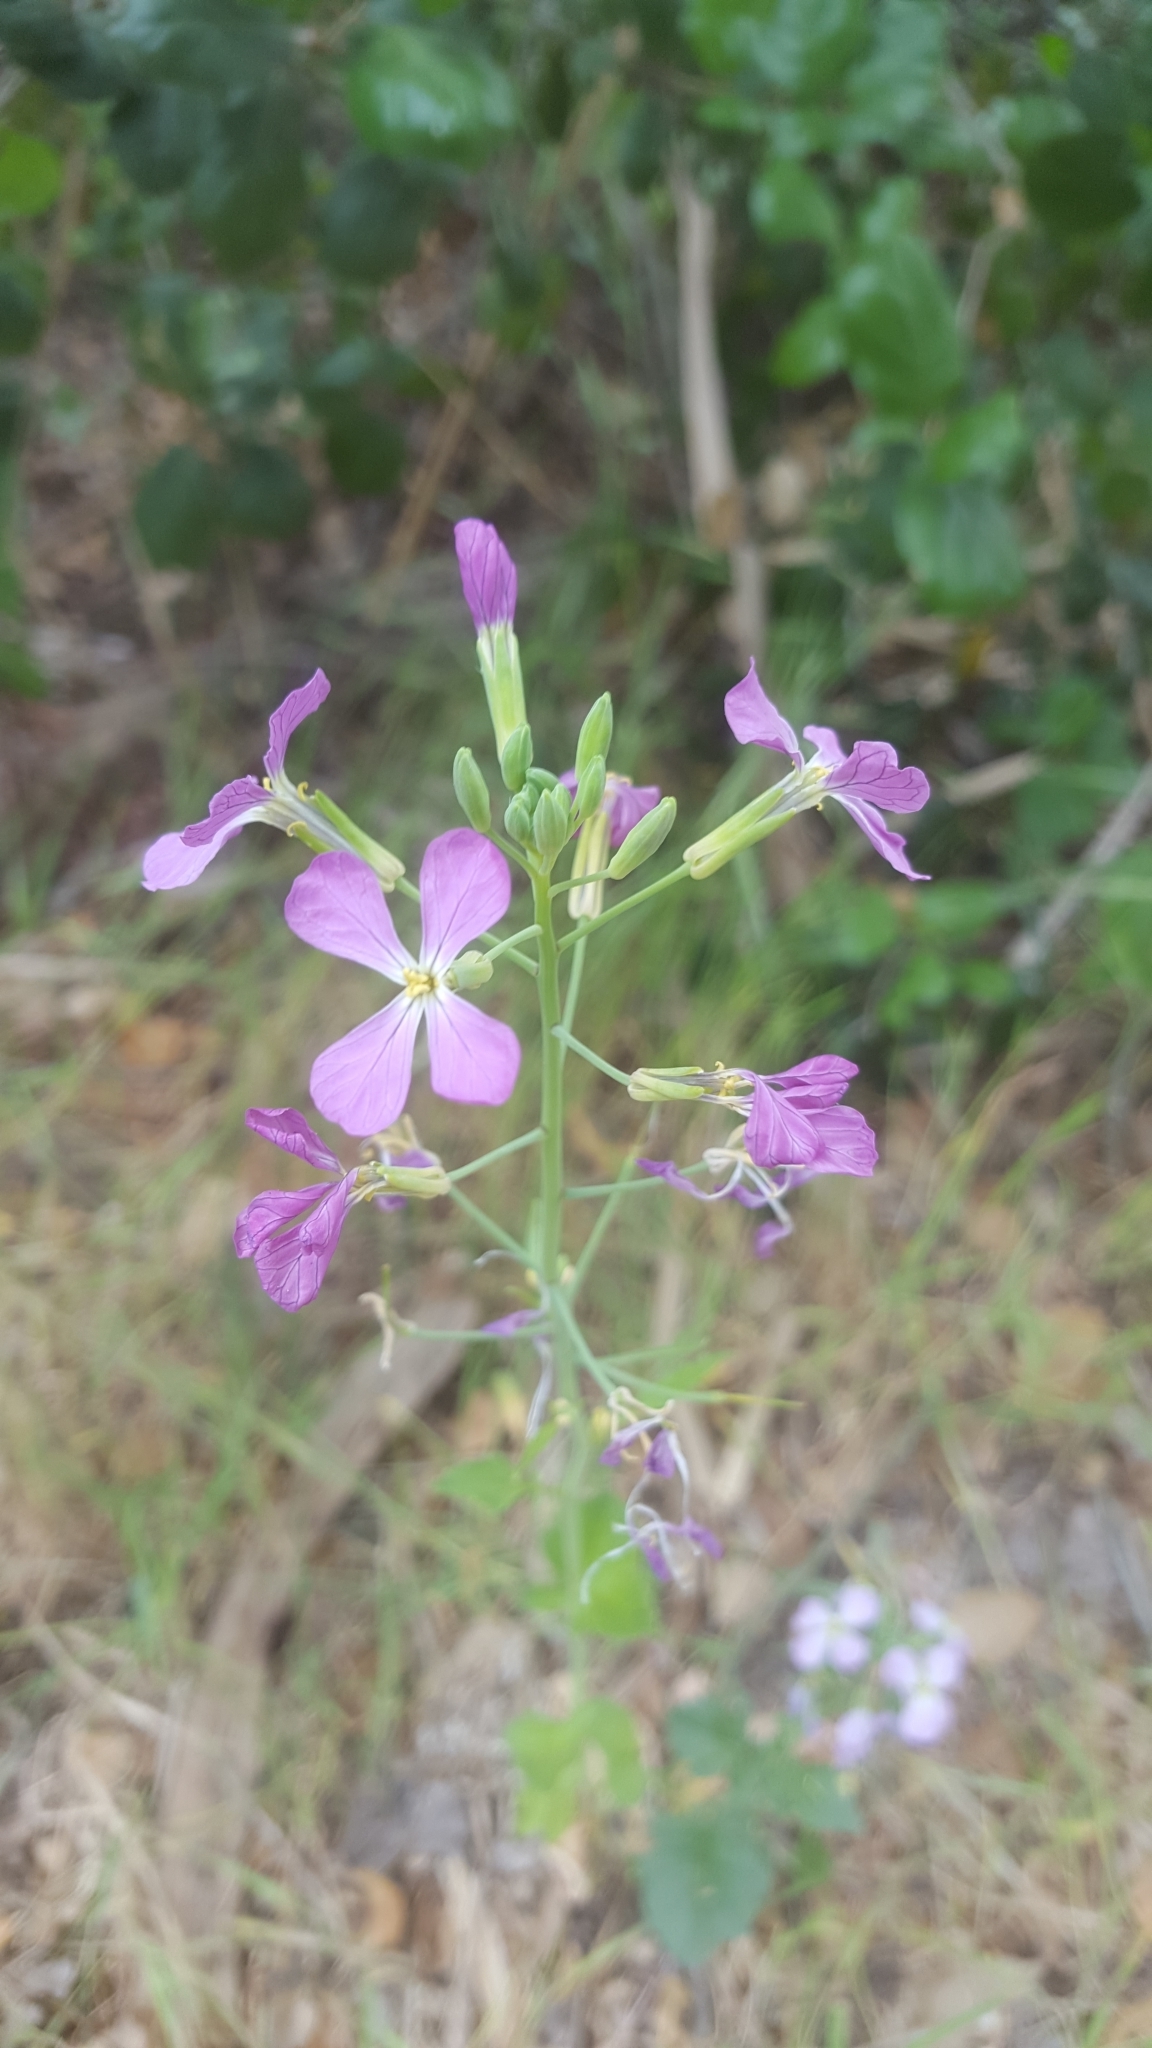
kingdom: Plantae
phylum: Tracheophyta
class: Magnoliopsida
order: Brassicales
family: Brassicaceae
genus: Raphanus
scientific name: Raphanus sativus
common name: Cultivated radish
